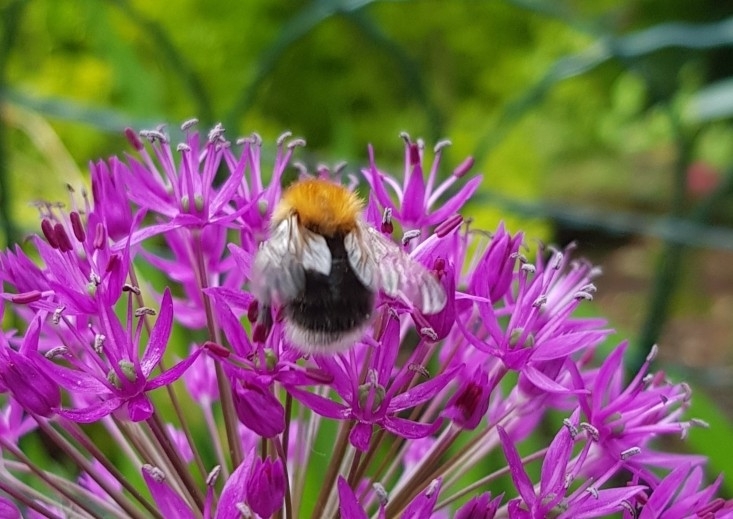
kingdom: Animalia
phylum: Arthropoda
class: Insecta
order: Hymenoptera
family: Apidae
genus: Bombus
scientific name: Bombus hypnorum
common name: New garden bumblebee
